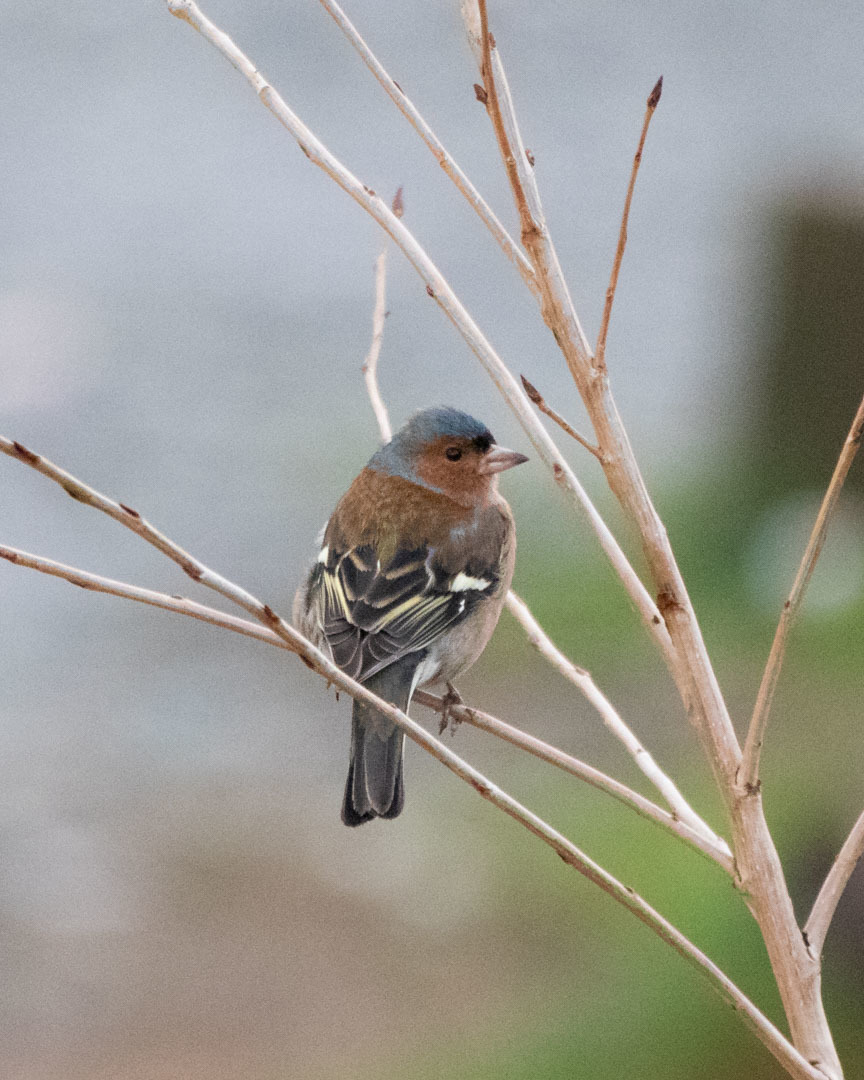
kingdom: Animalia
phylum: Chordata
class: Aves
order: Passeriformes
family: Fringillidae
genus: Fringilla
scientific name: Fringilla coelebs
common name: Common chaffinch
